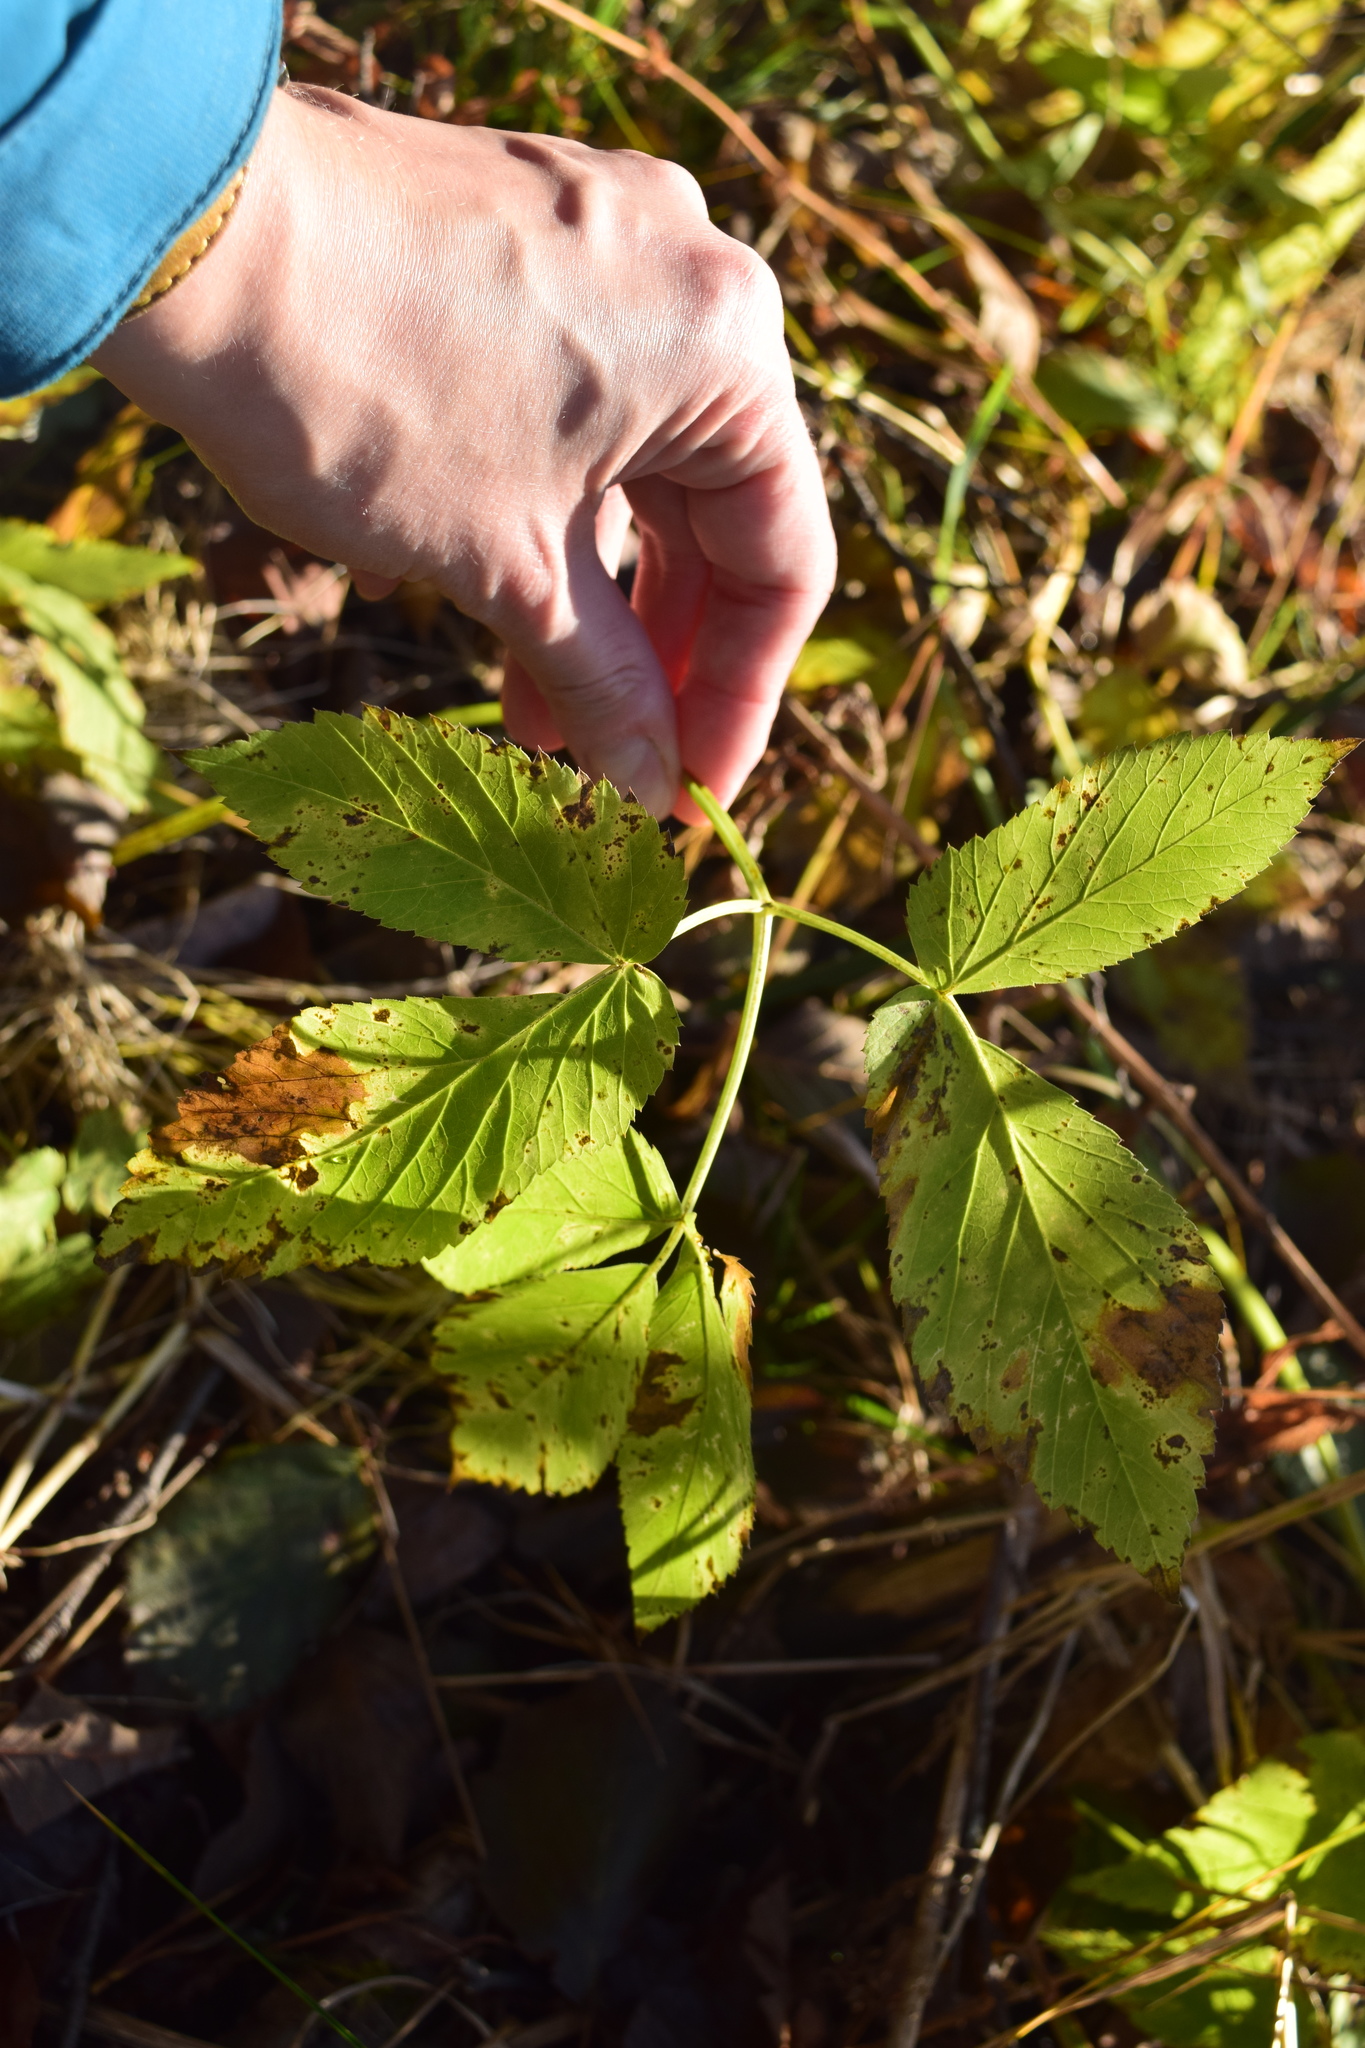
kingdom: Plantae
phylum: Tracheophyta
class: Magnoliopsida
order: Apiales
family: Apiaceae
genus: Aegopodium
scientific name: Aegopodium podagraria
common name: Ground-elder
